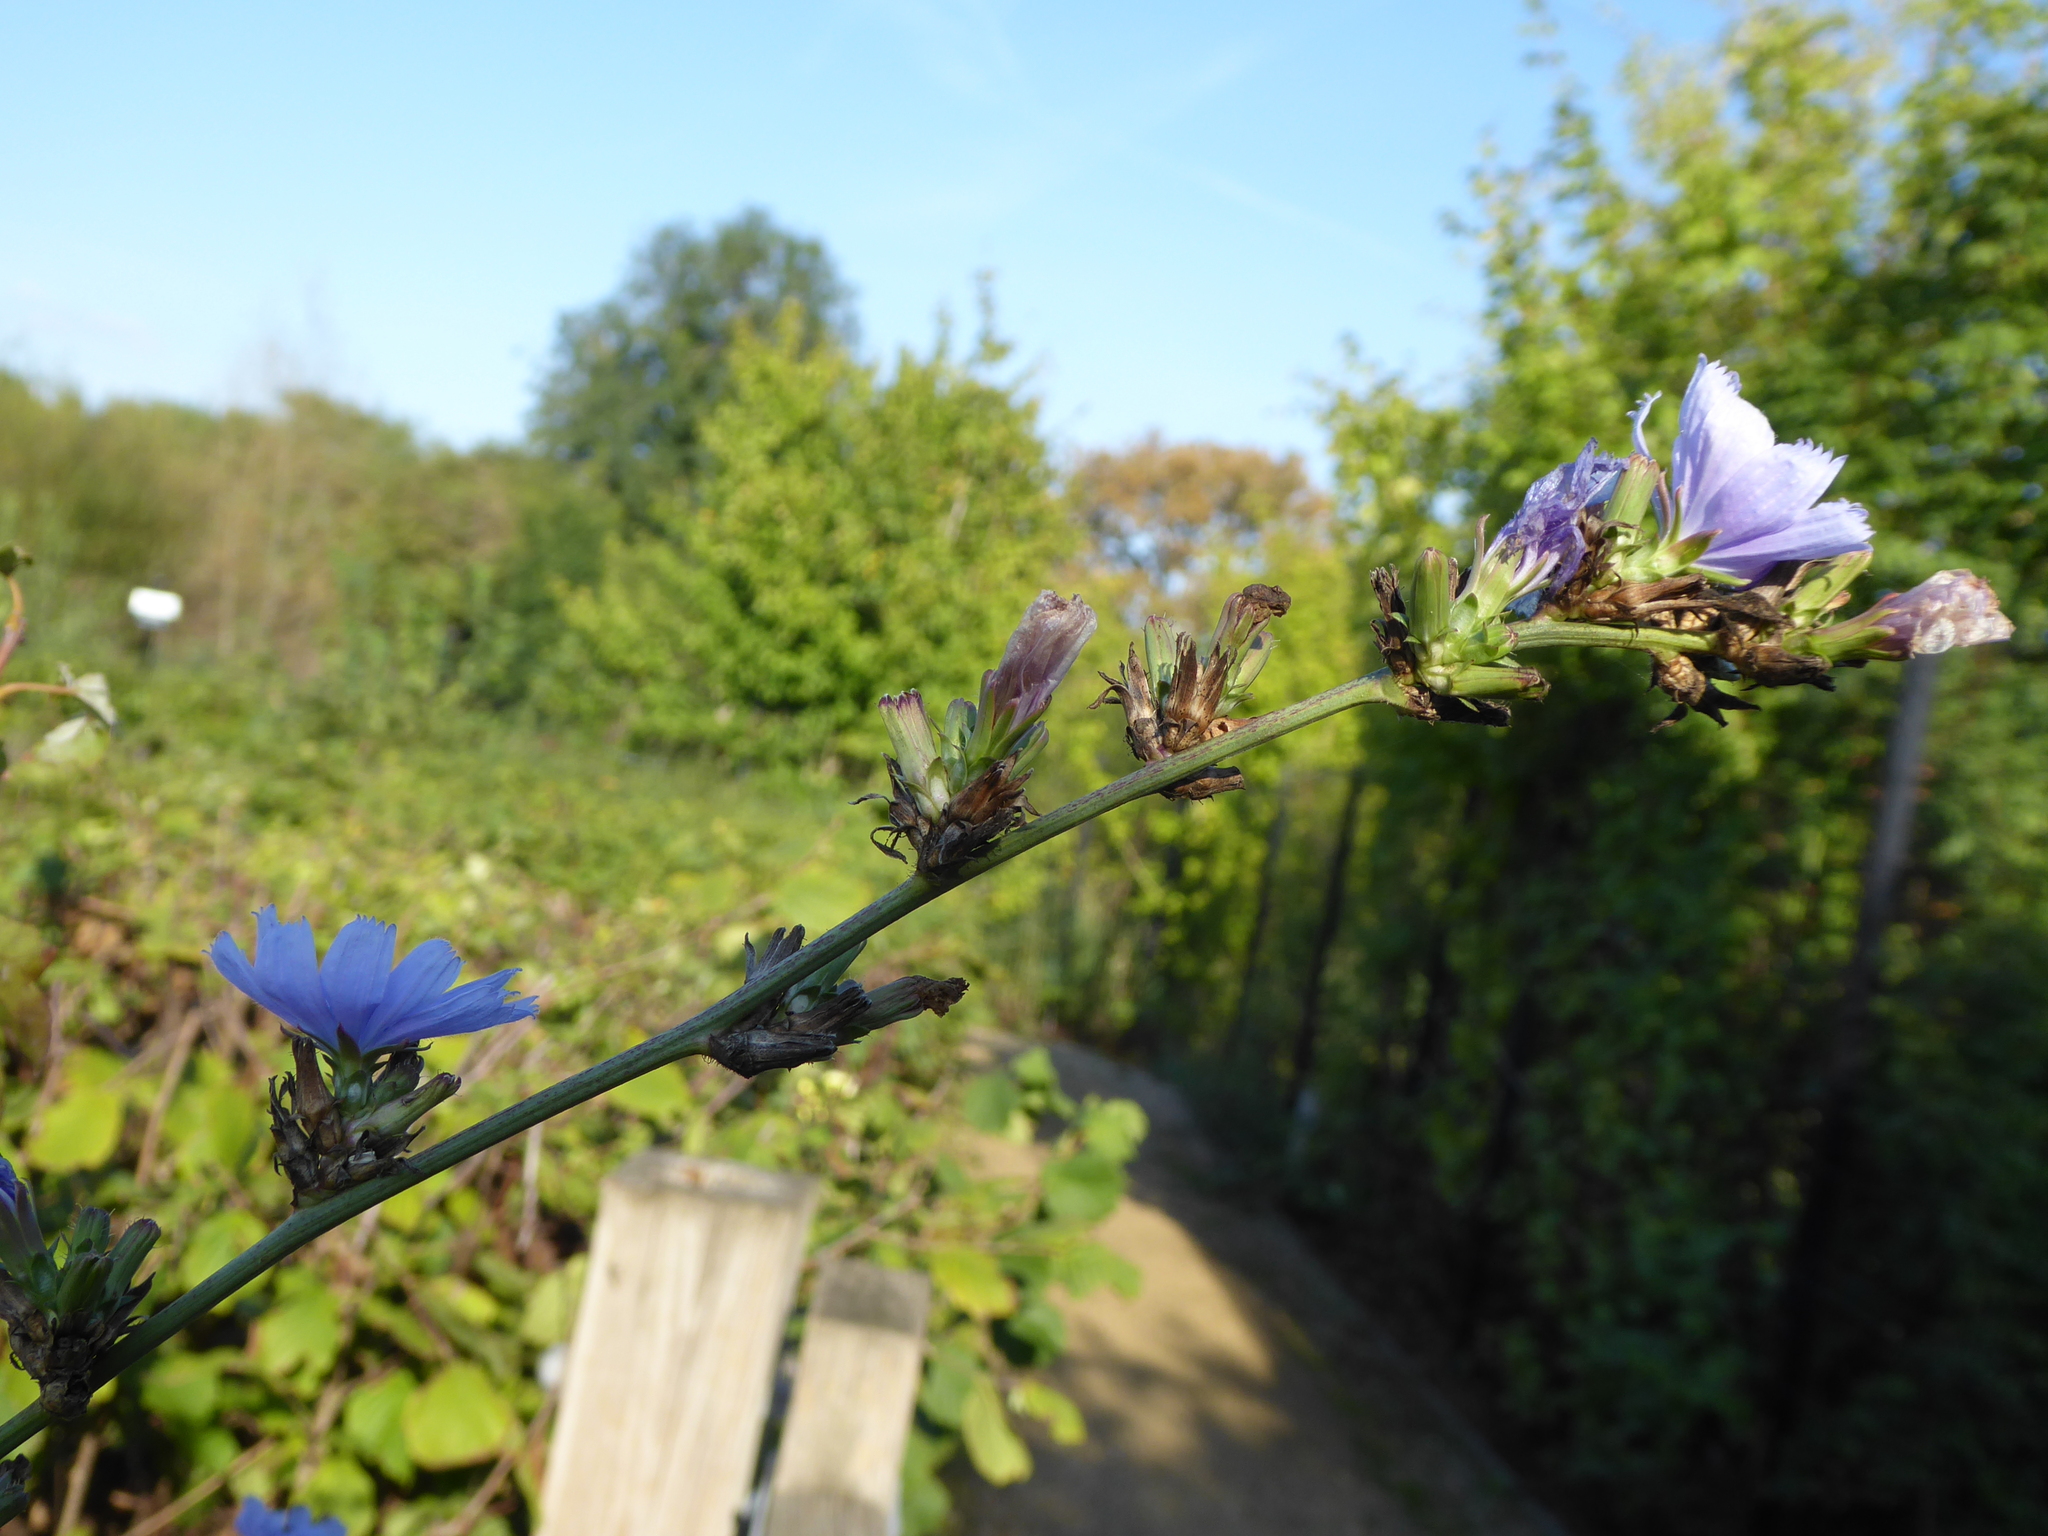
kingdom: Plantae
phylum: Tracheophyta
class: Magnoliopsida
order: Asterales
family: Asteraceae
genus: Cichorium
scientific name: Cichorium intybus
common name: Chicory
